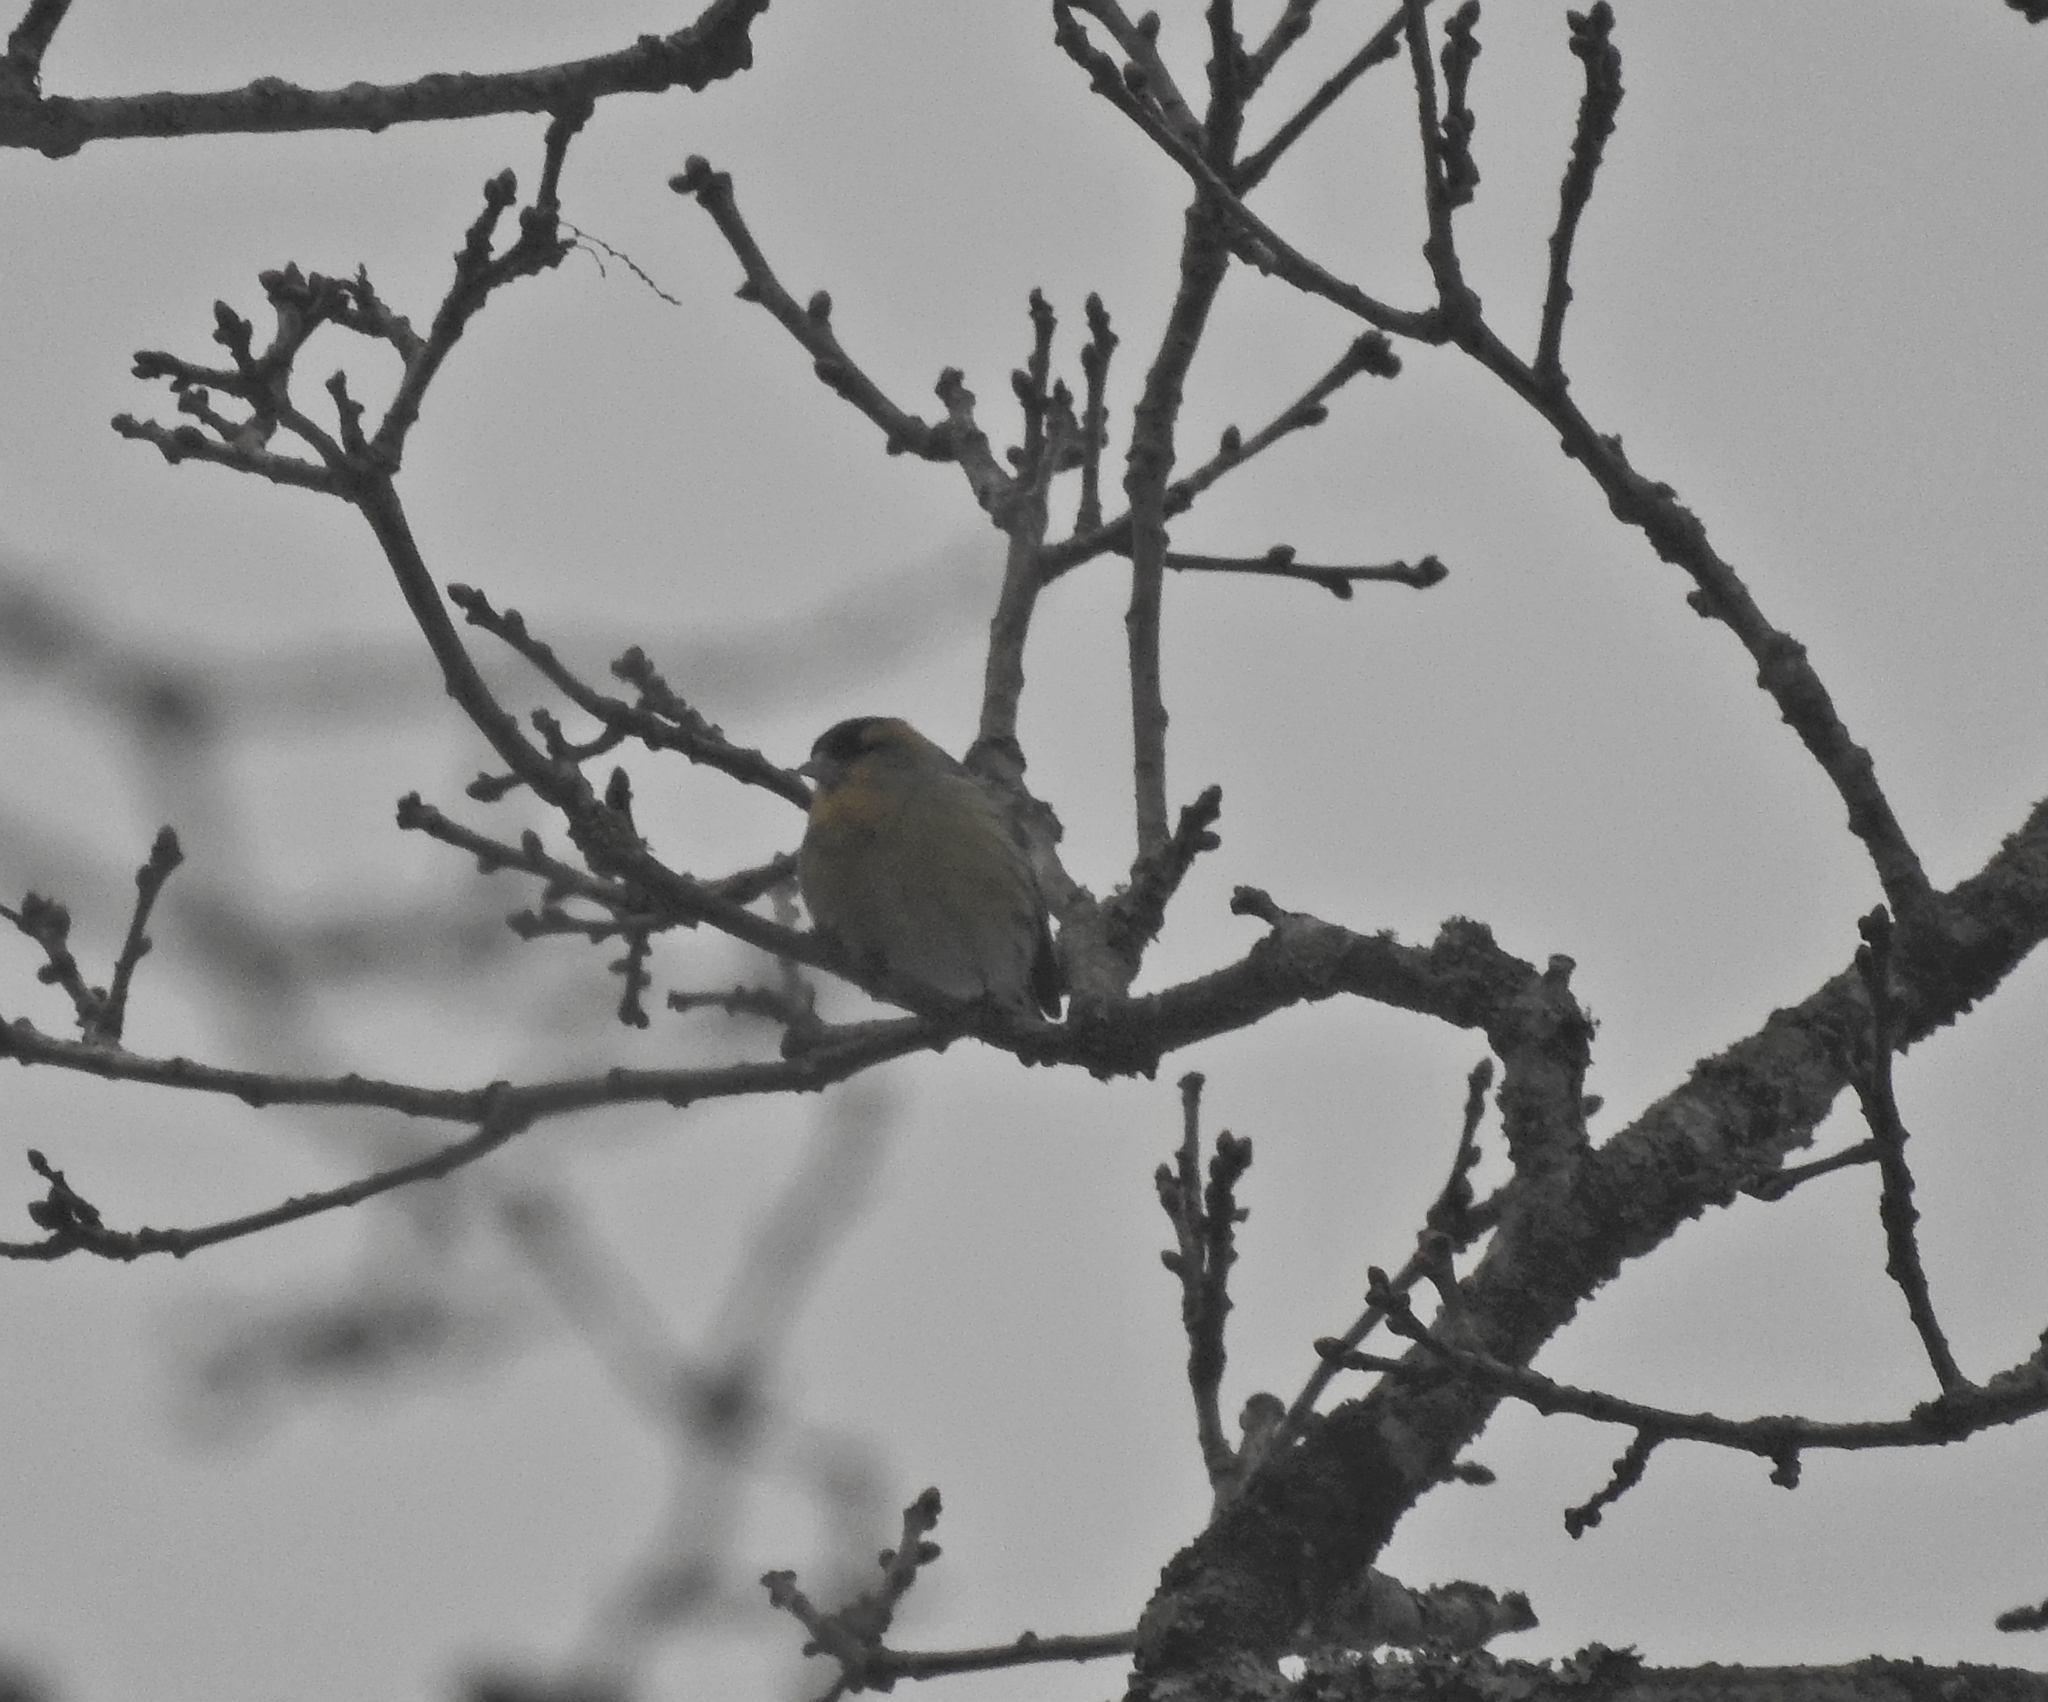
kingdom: Animalia
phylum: Chordata
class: Aves
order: Passeriformes
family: Fringillidae
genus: Spinus
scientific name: Spinus spinus
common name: Eurasian siskin
